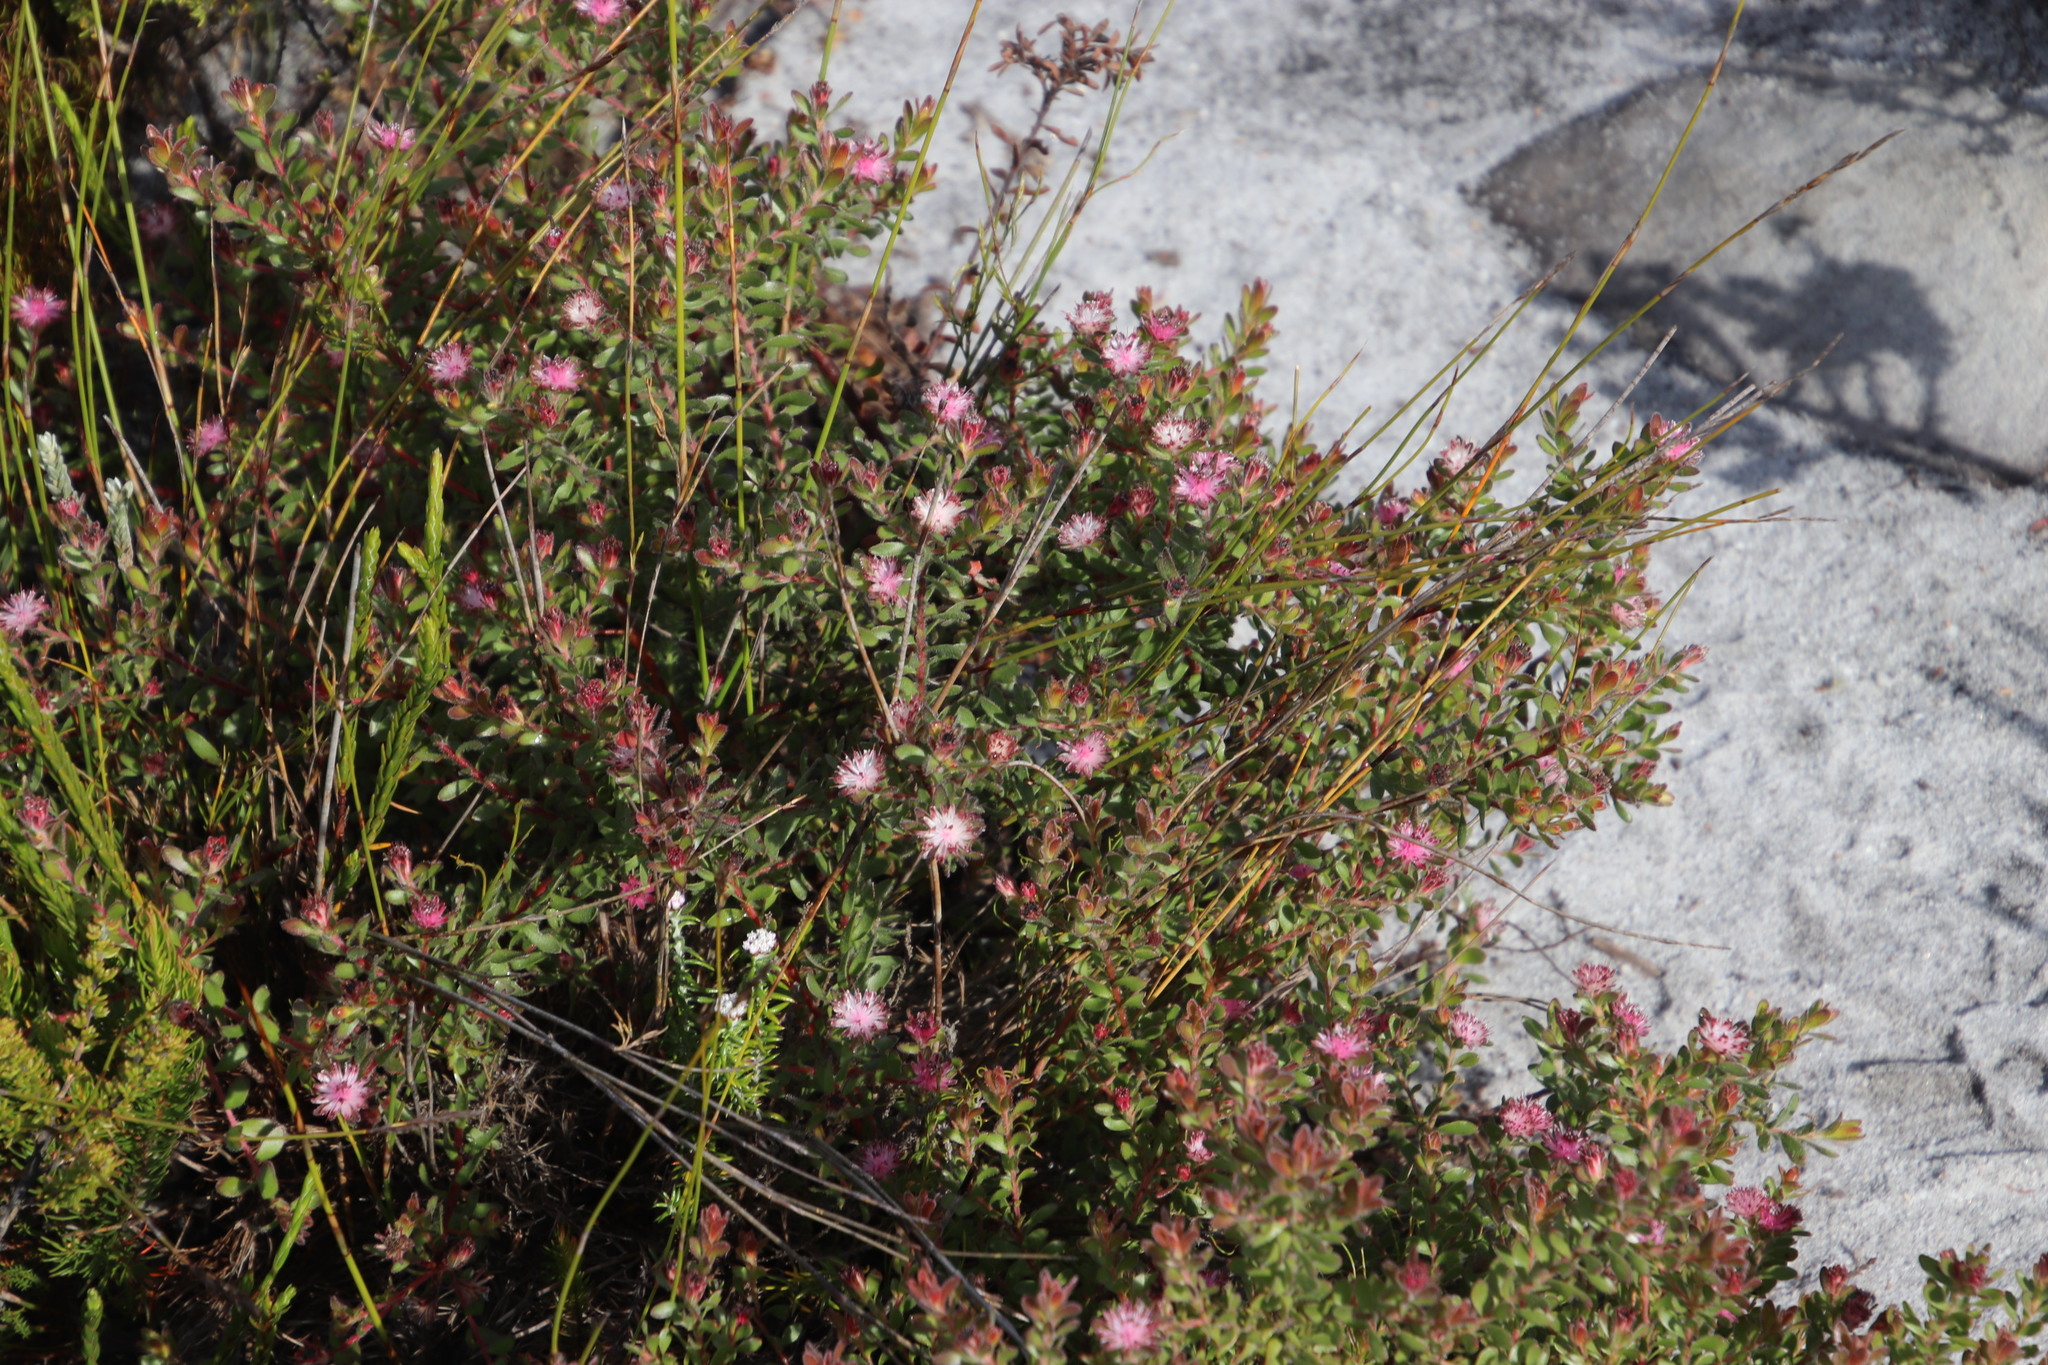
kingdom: Plantae
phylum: Tracheophyta
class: Magnoliopsida
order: Proteales
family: Proteaceae
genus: Diastella
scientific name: Diastella divaricata
